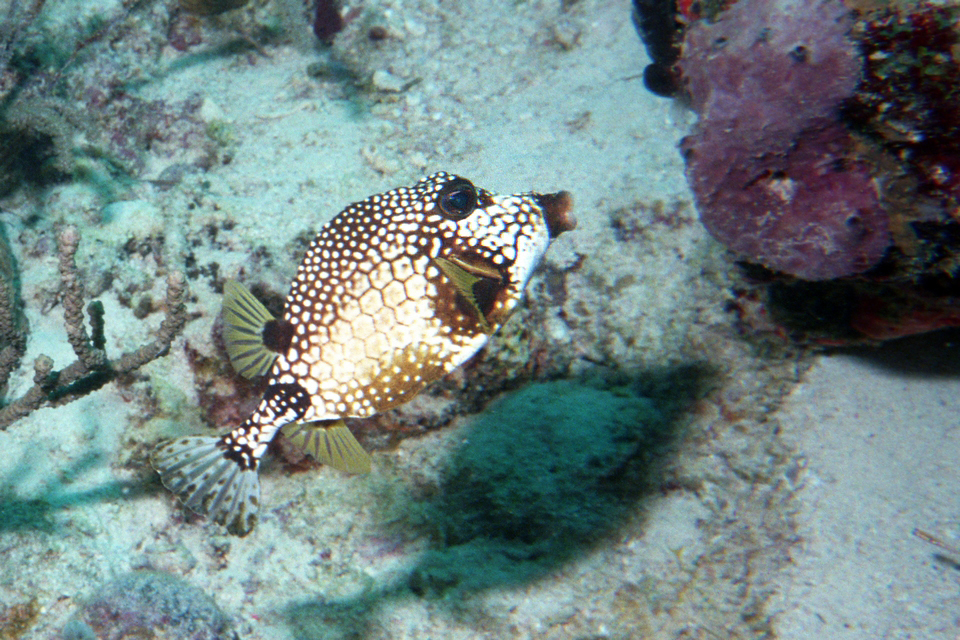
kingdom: Animalia
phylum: Chordata
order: Tetraodontiformes
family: Ostraciidae
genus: Lactophrys
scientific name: Lactophrys triqueter
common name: Smooth trunkfish
